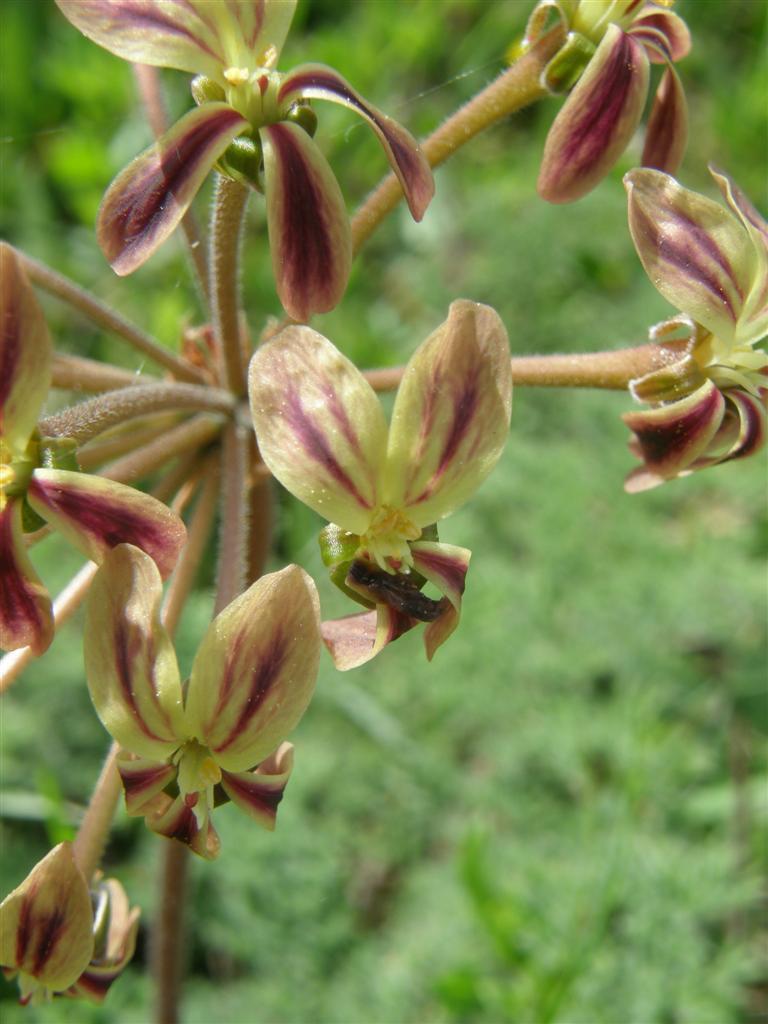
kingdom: Plantae
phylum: Tracheophyta
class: Magnoliopsida
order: Geraniales
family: Geraniaceae
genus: Pelargonium
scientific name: Pelargonium triste
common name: Night-scent pelargonium
